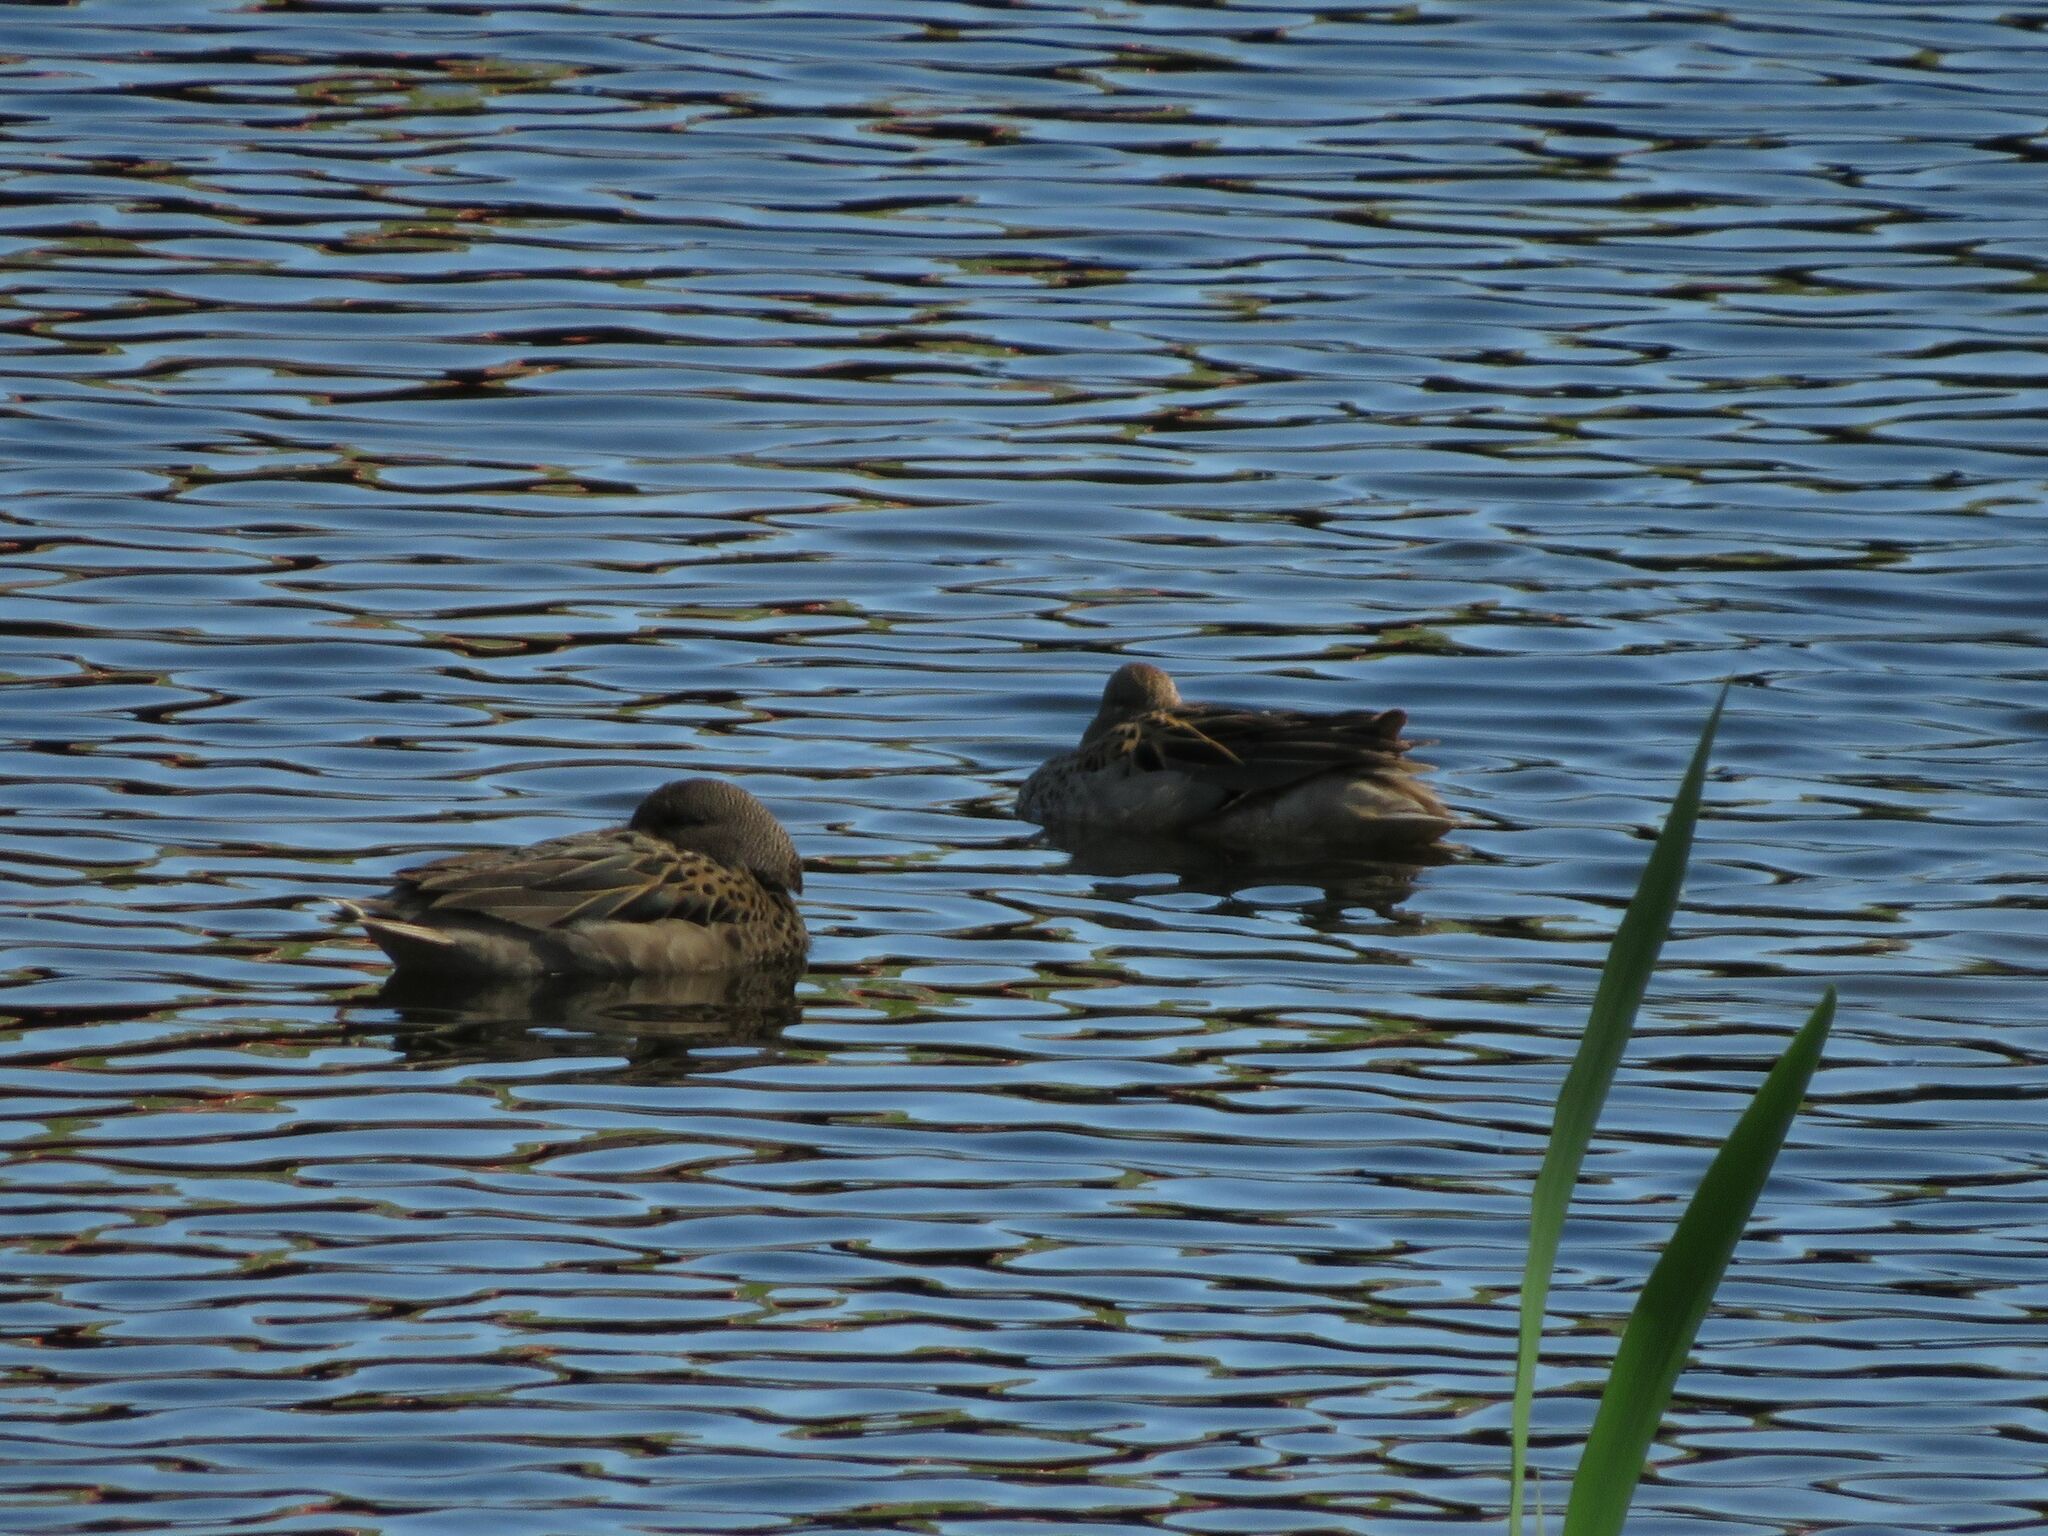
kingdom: Animalia
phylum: Chordata
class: Aves
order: Anseriformes
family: Anatidae
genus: Anas
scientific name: Anas flavirostris
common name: Yellow-billed teal
